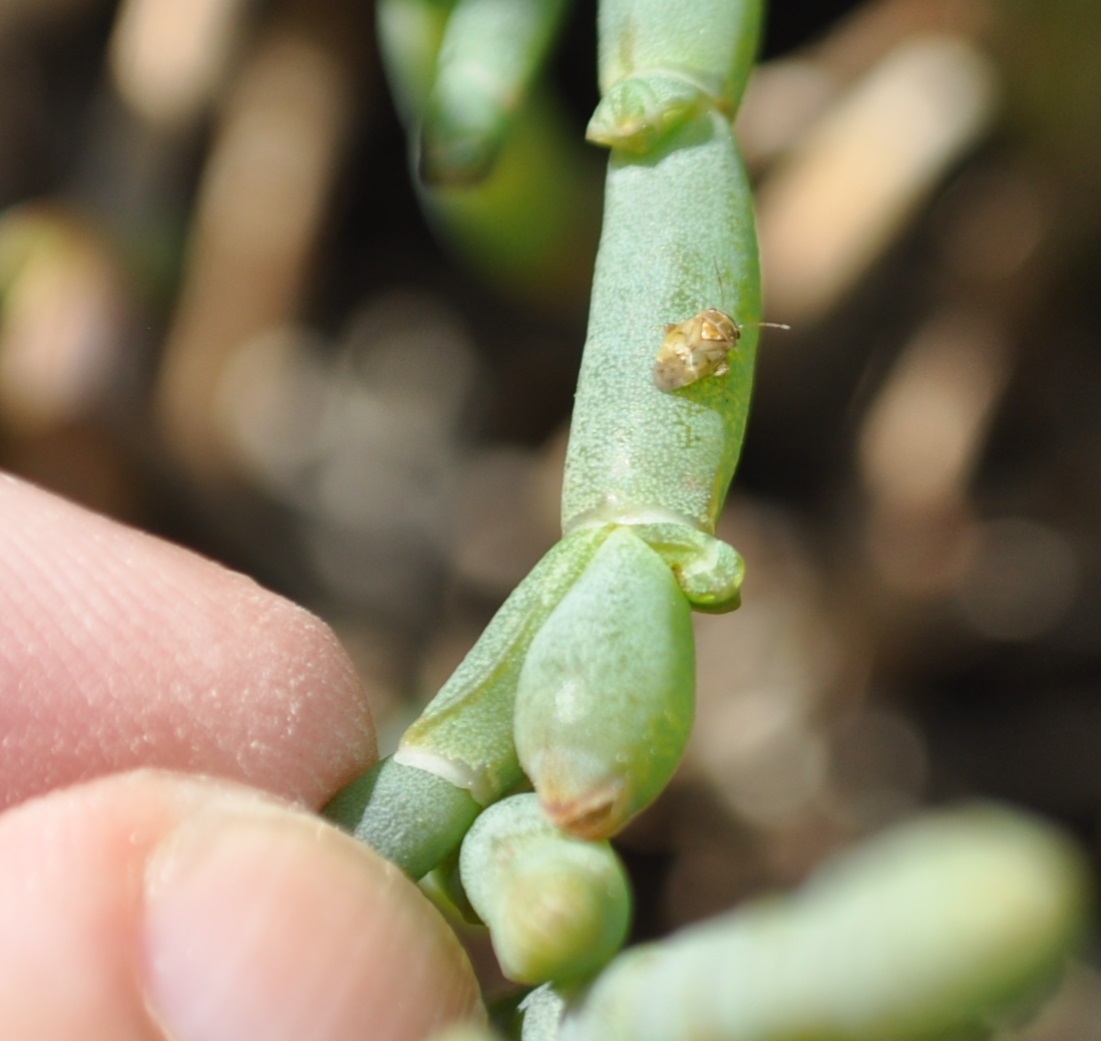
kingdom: Animalia
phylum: Arthropoda
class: Insecta
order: Hemiptera
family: Miridae
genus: Coridromius
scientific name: Coridromius chenopoderis
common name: Plant bug
